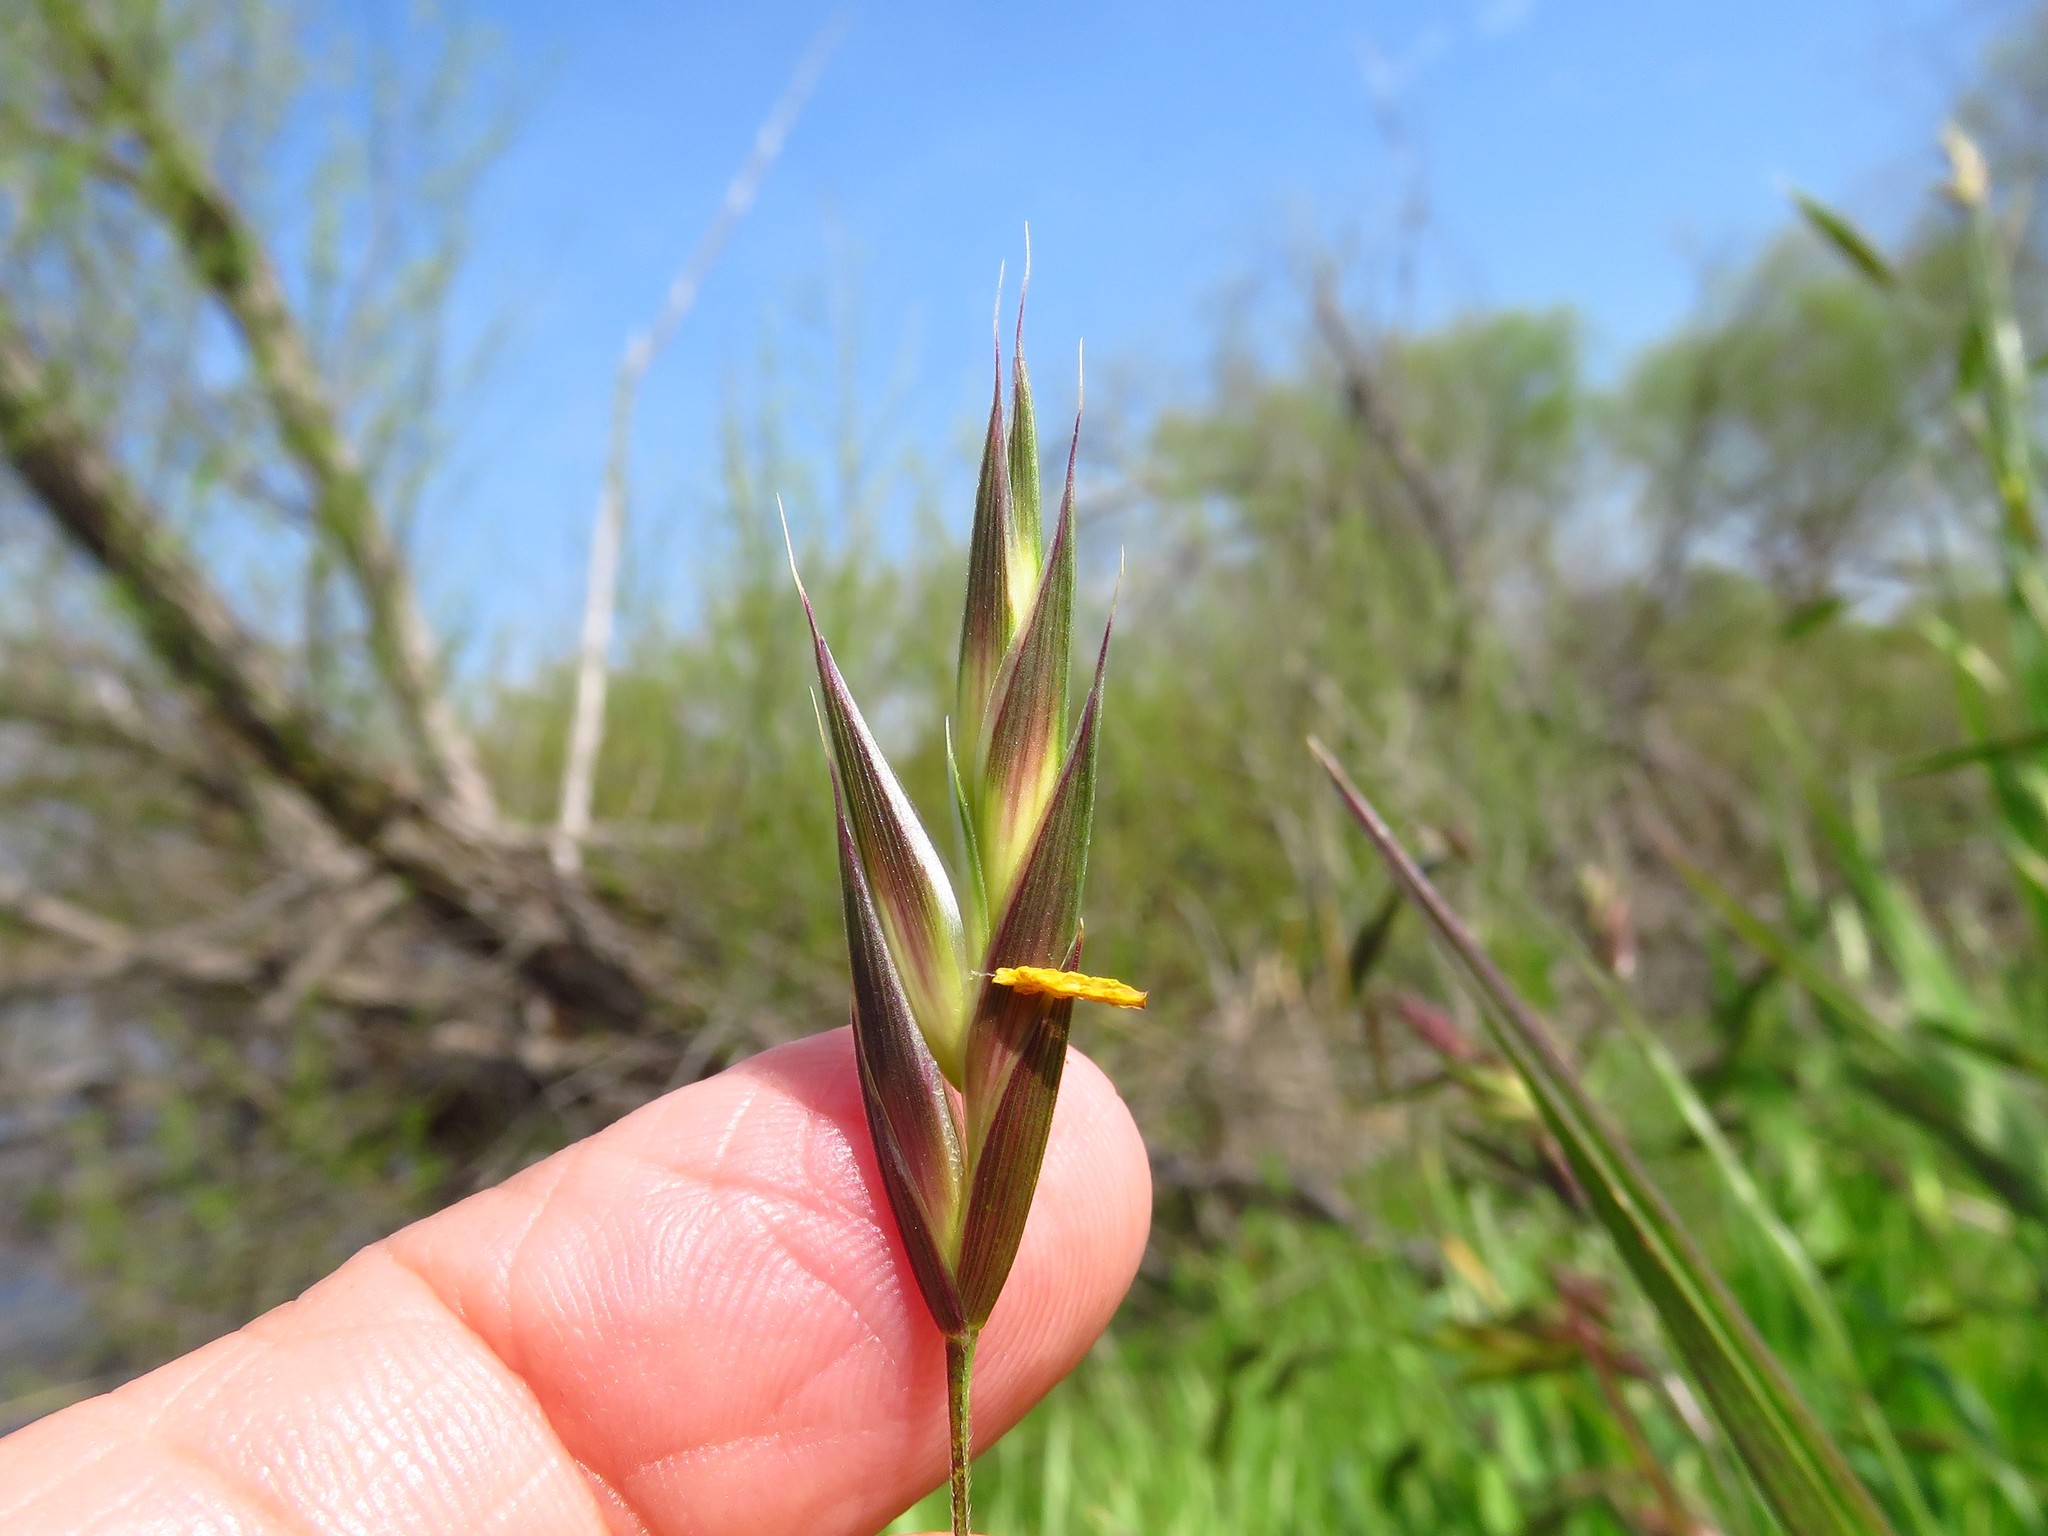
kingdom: Plantae
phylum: Tracheophyta
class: Liliopsida
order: Poales
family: Poaceae
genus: Bromus
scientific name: Bromus catharticus
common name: Rescuegrass
